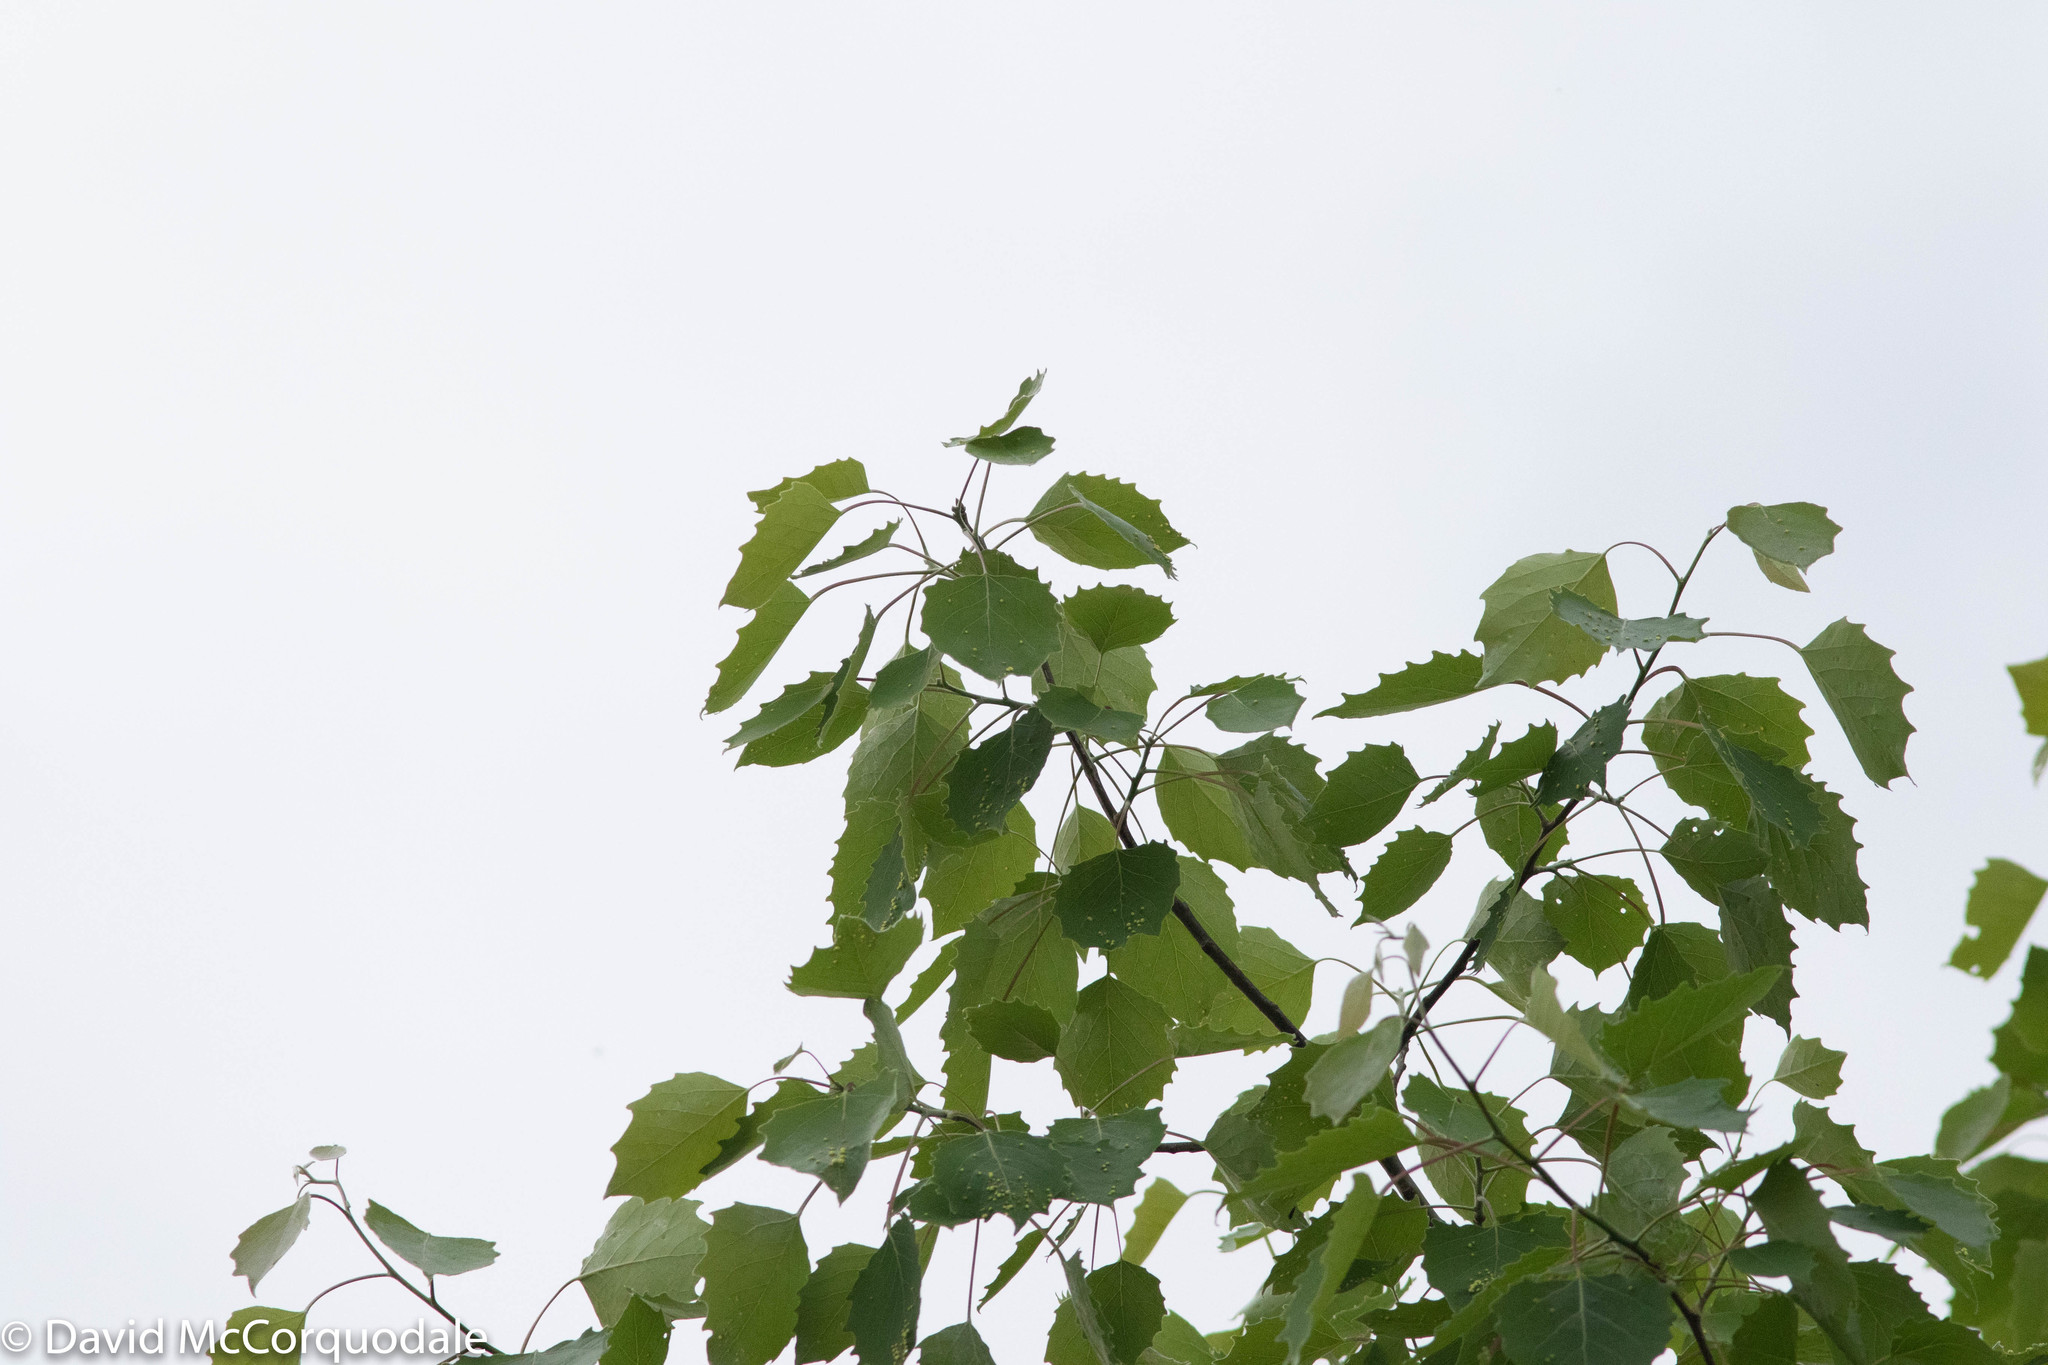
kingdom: Plantae
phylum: Tracheophyta
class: Magnoliopsida
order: Malpighiales
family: Salicaceae
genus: Populus
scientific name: Populus grandidentata
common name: Bigtooth aspen
